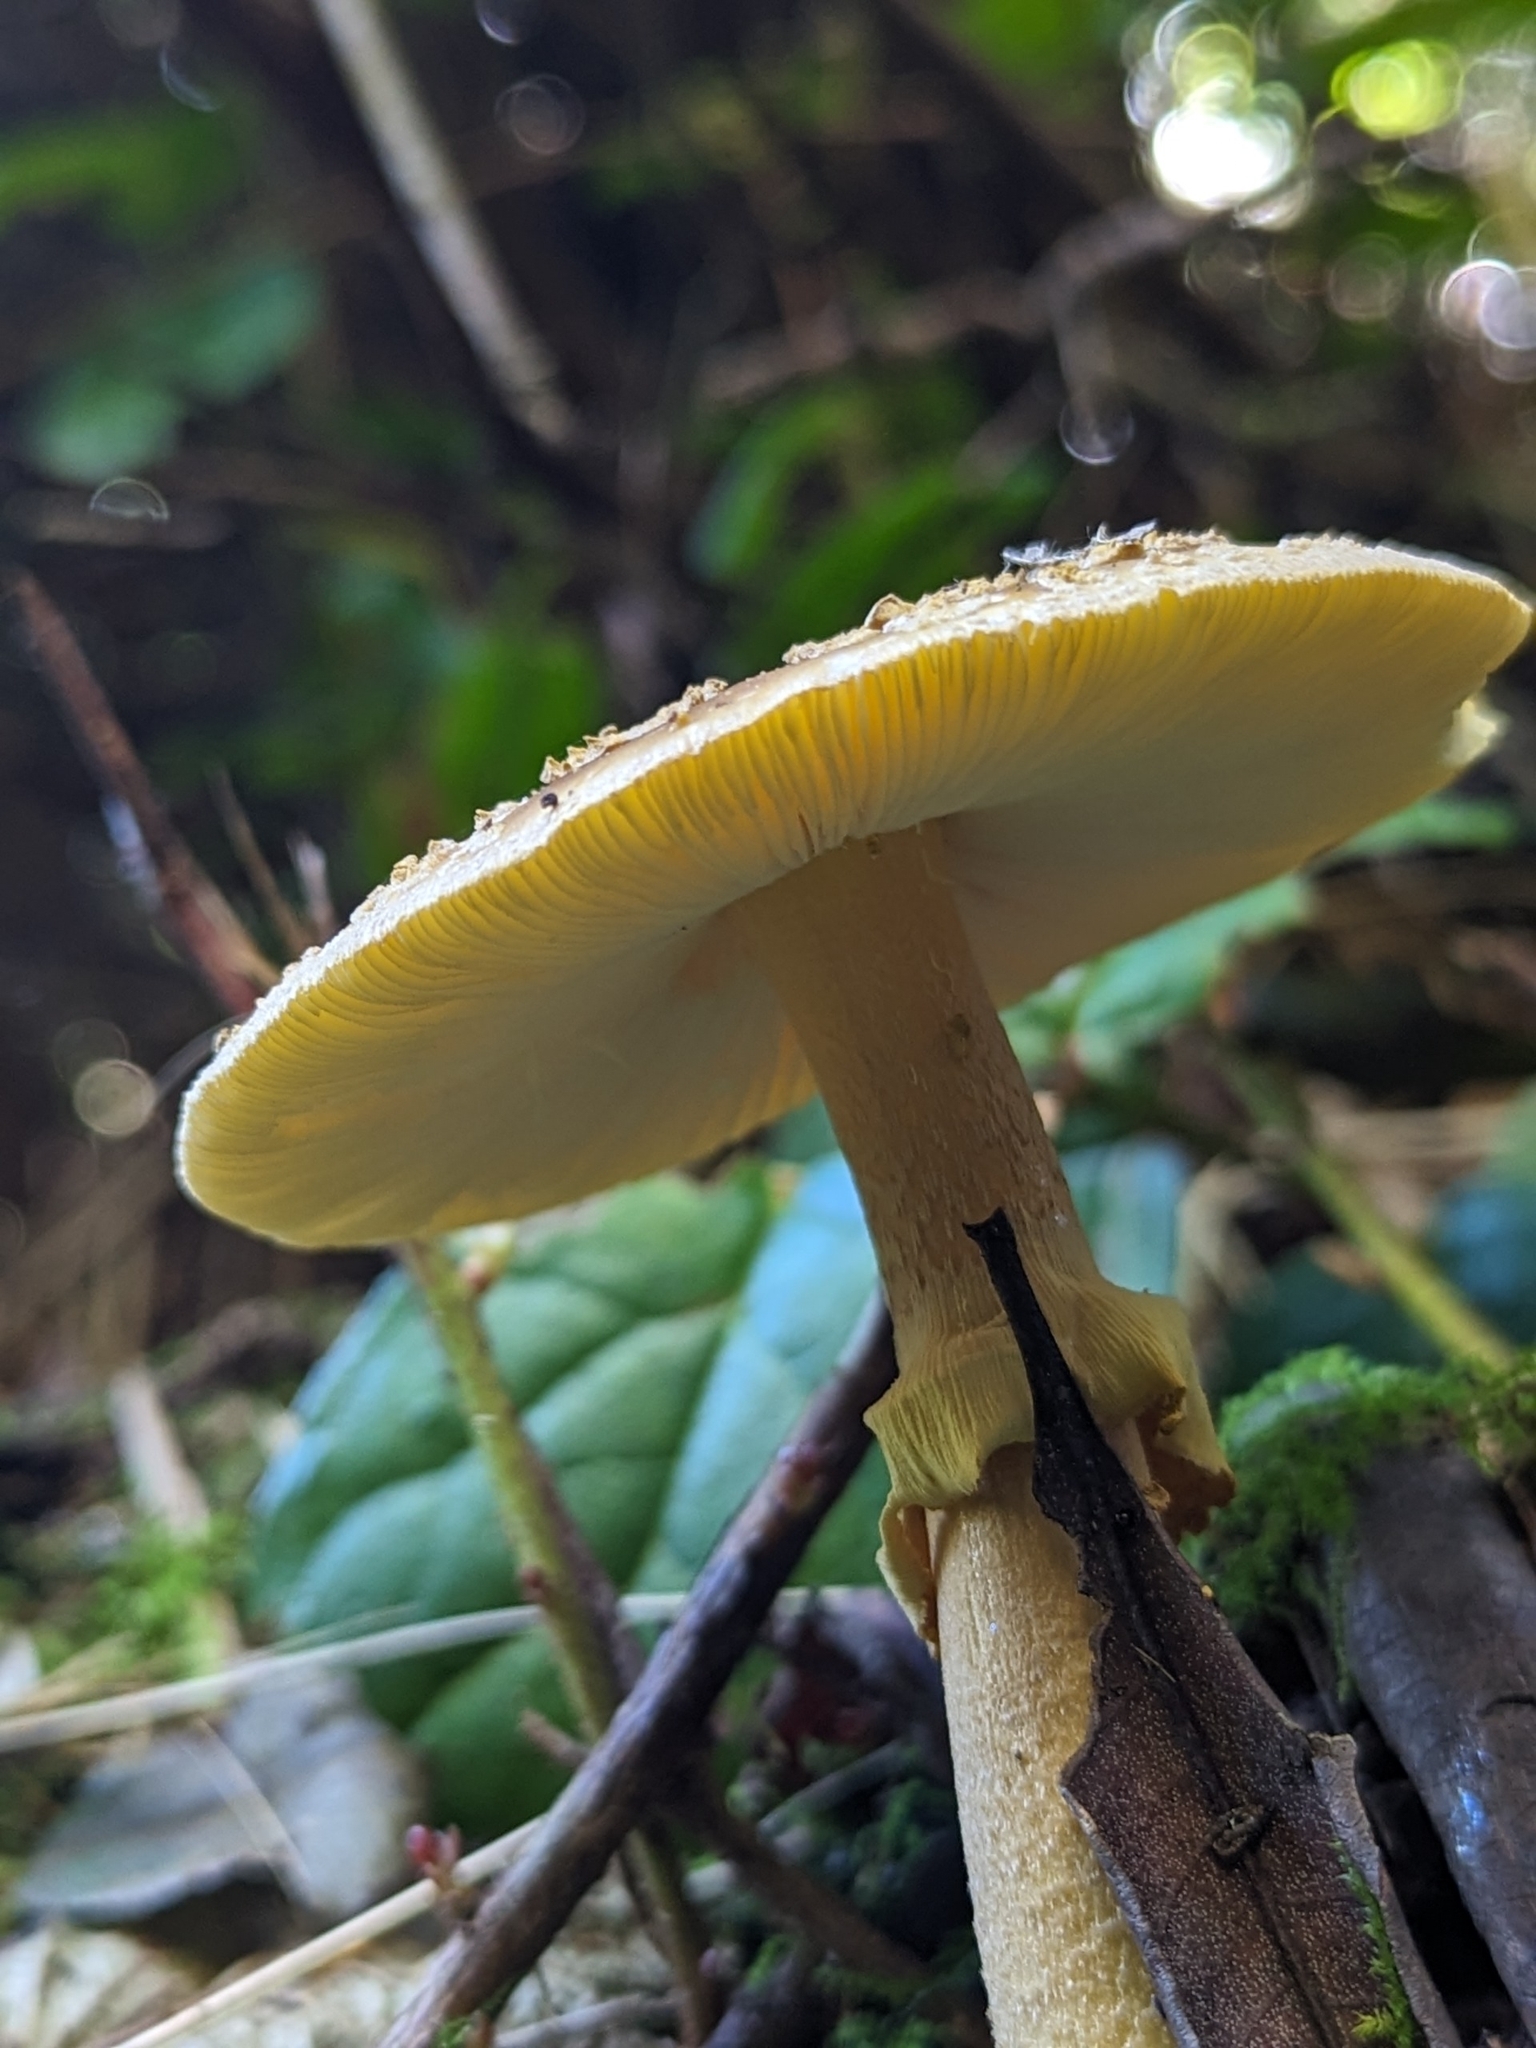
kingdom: Fungi
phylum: Basidiomycota
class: Agaricomycetes
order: Agaricales
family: Amanitaceae
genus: Amanita
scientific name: Amanita augusta
